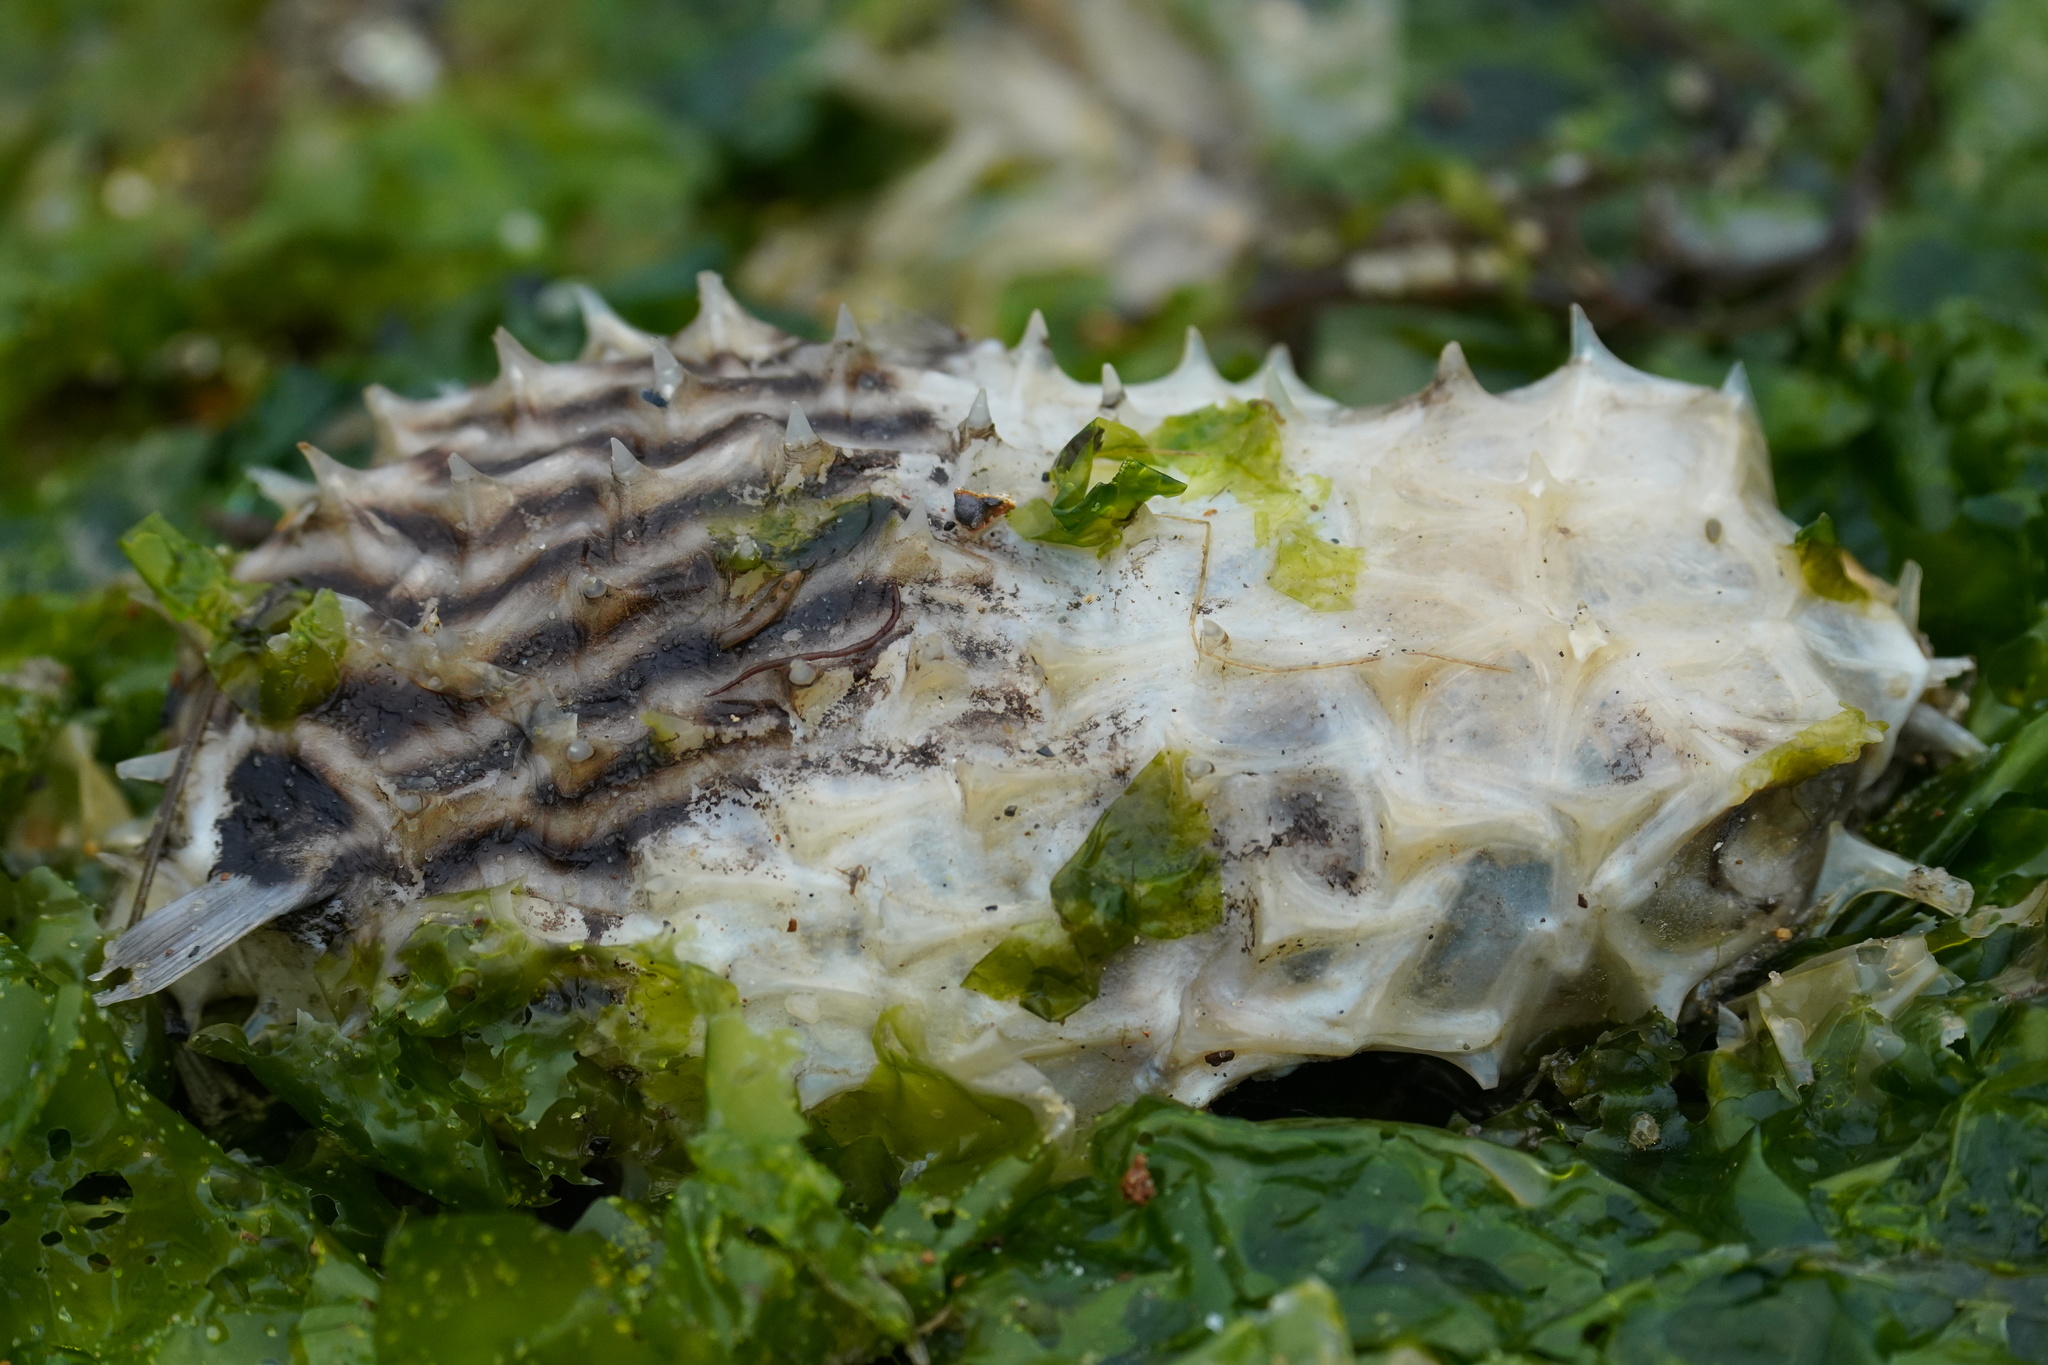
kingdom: Animalia
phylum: Chordata
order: Tetraodontiformes
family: Diodontidae
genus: Chilomycterus
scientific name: Chilomycterus schoepfii
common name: Striped burrfish
